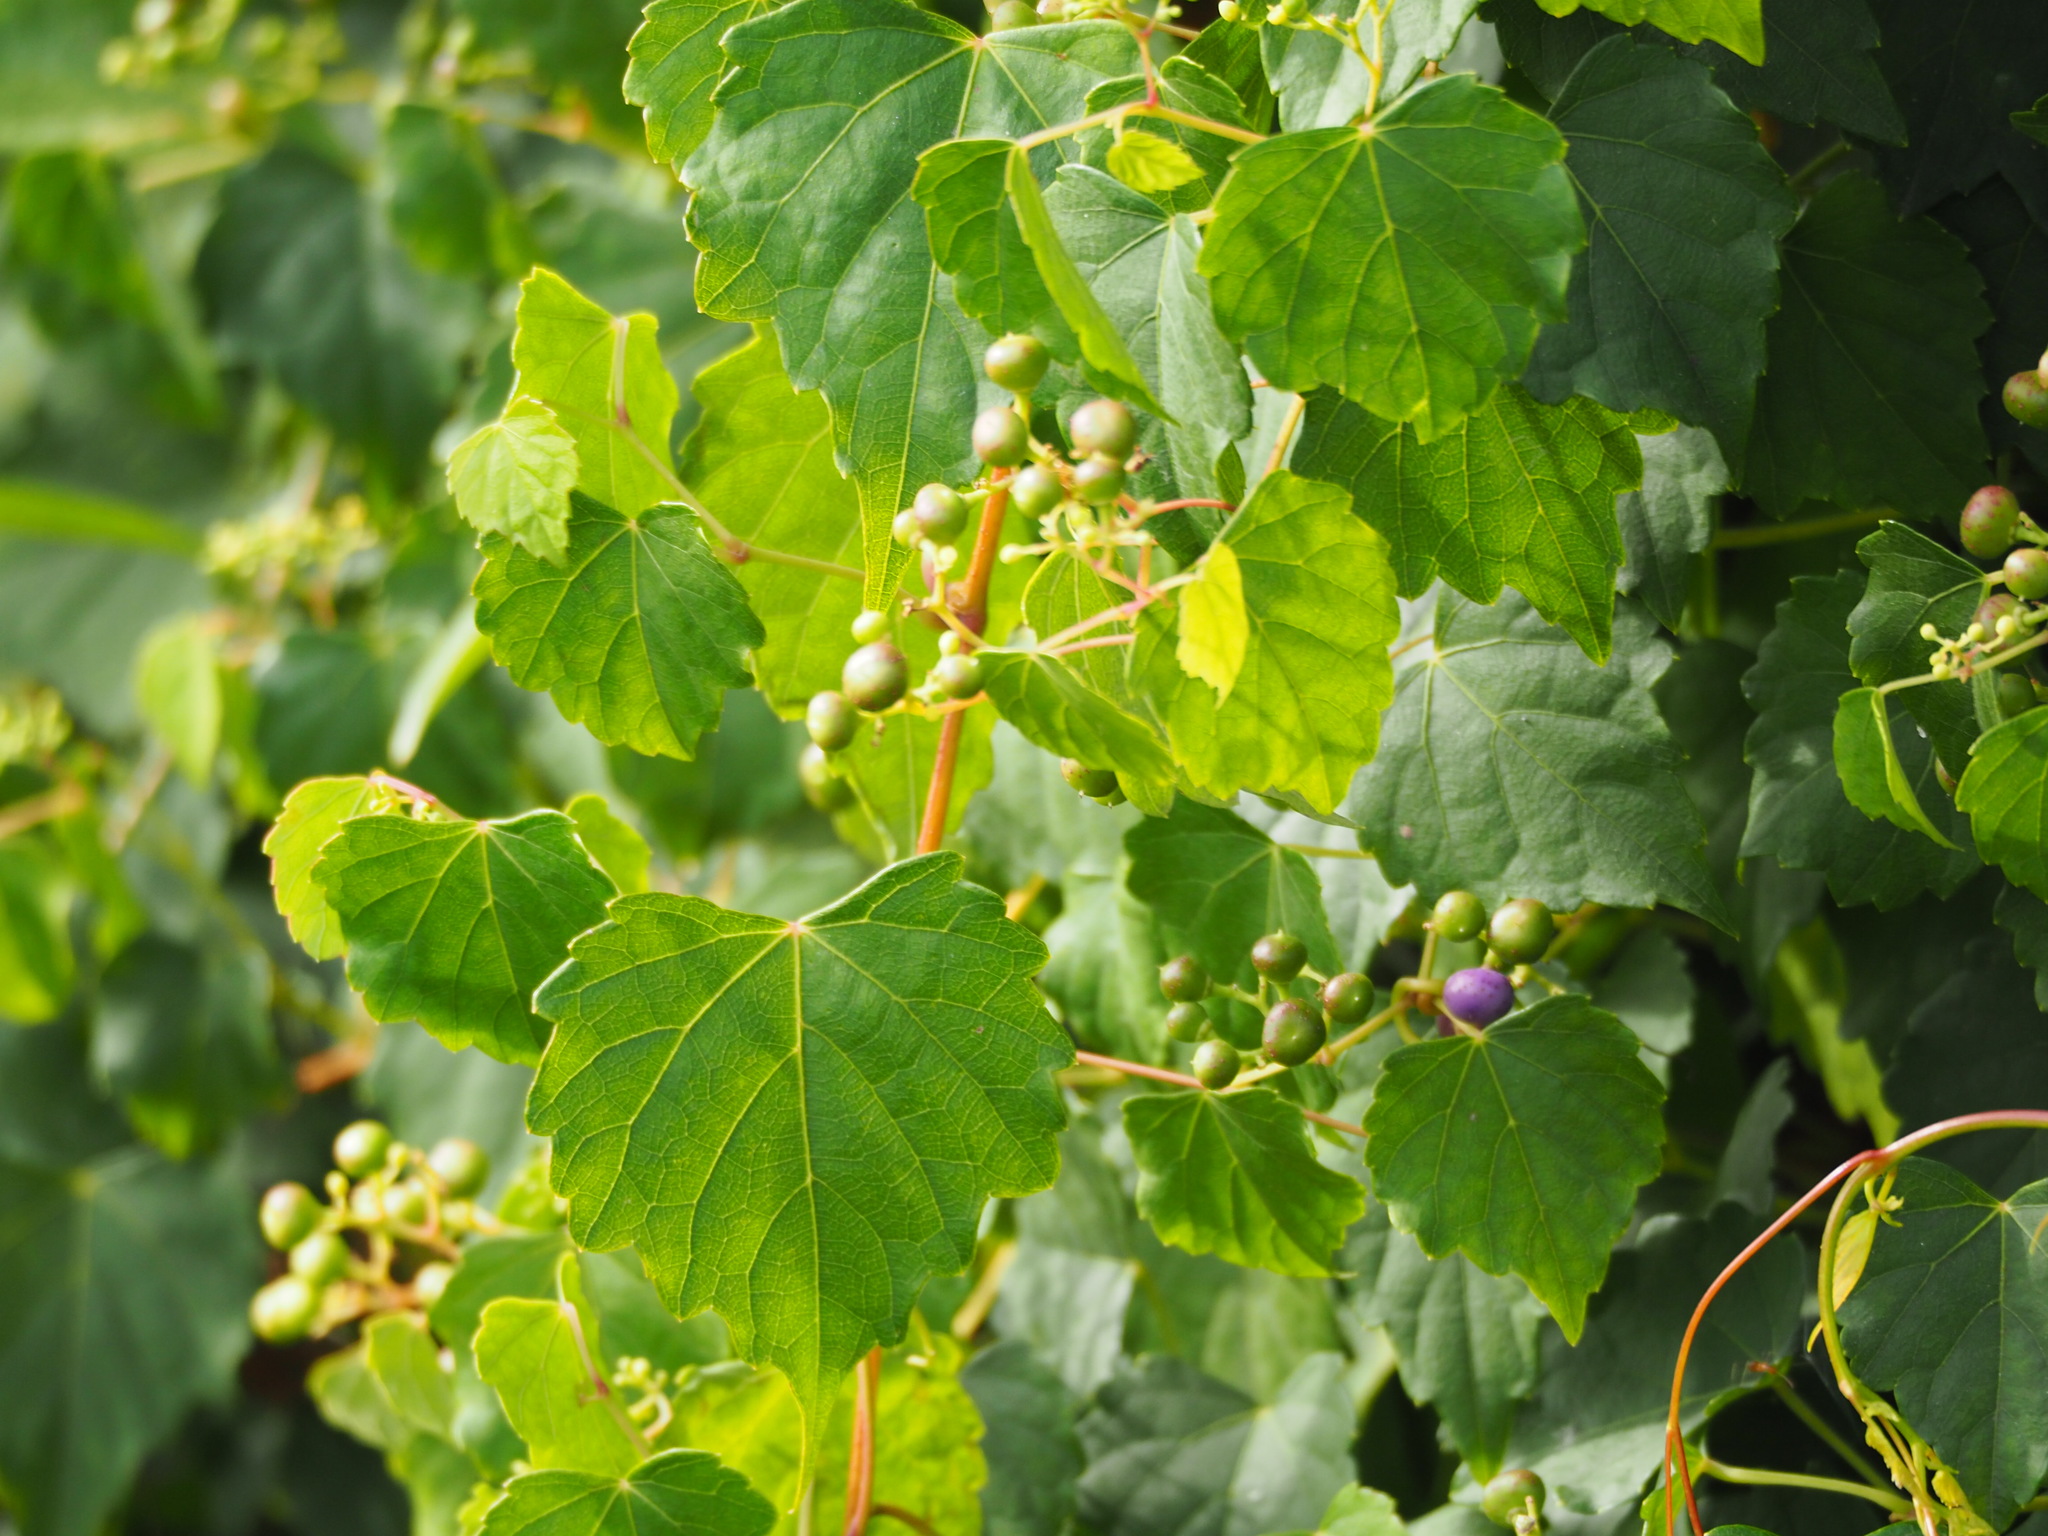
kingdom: Plantae
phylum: Tracheophyta
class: Magnoliopsida
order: Vitales
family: Vitaceae
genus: Ampelopsis
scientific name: Ampelopsis glandulosa
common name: Amur peppervine
